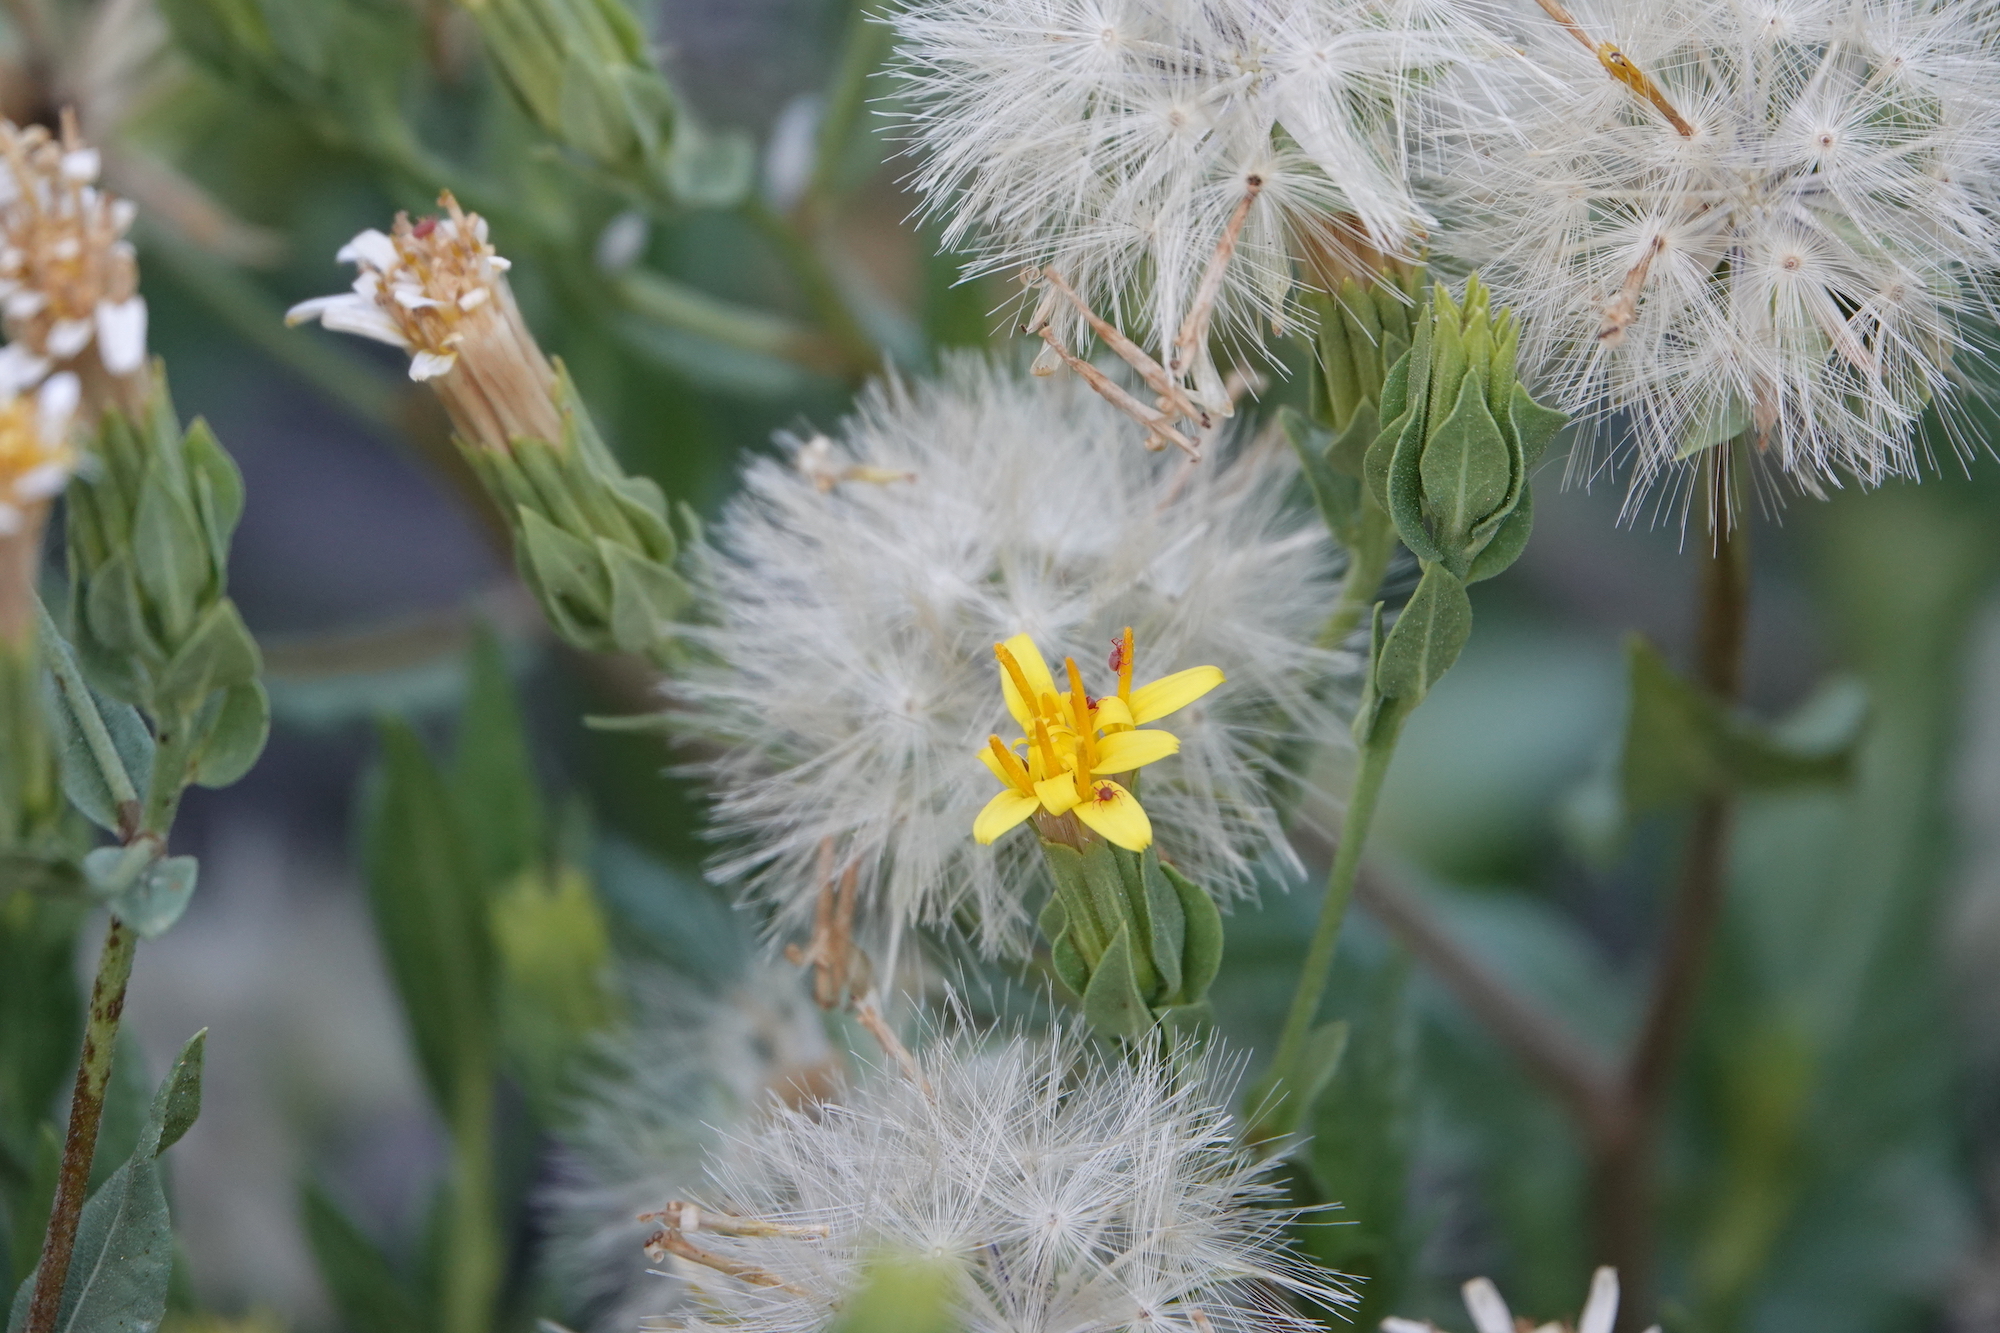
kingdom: Plantae
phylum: Tracheophyta
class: Magnoliopsida
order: Asterales
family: Asteraceae
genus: Trixis
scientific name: Trixis californica
